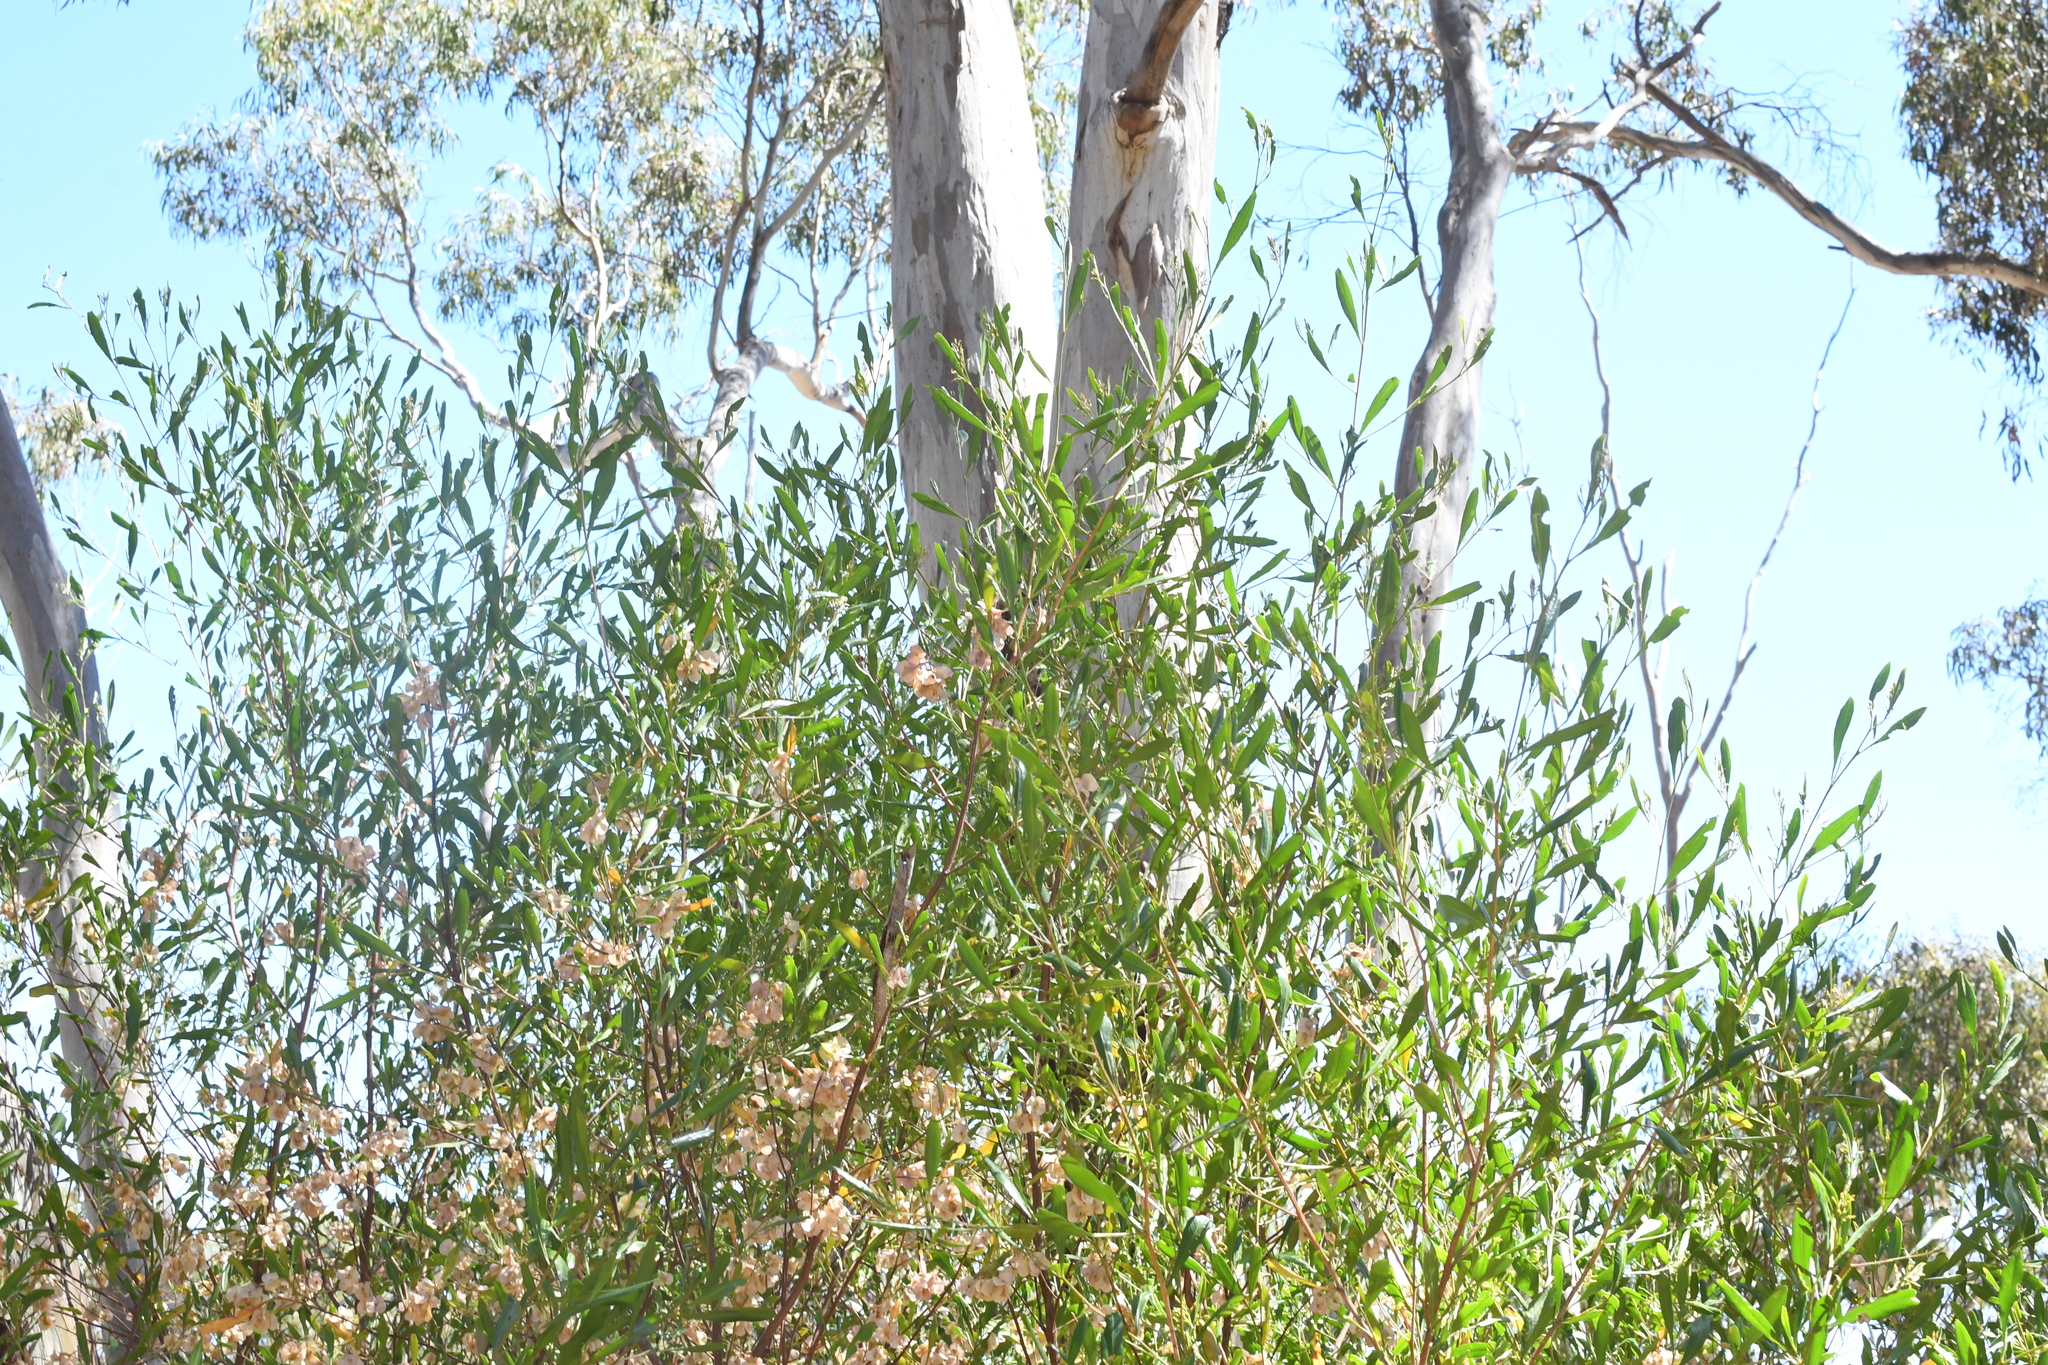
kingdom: Plantae
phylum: Tracheophyta
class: Magnoliopsida
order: Sapindales
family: Sapindaceae
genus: Dodonaea
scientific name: Dodonaea viscosa
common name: Hopbush
